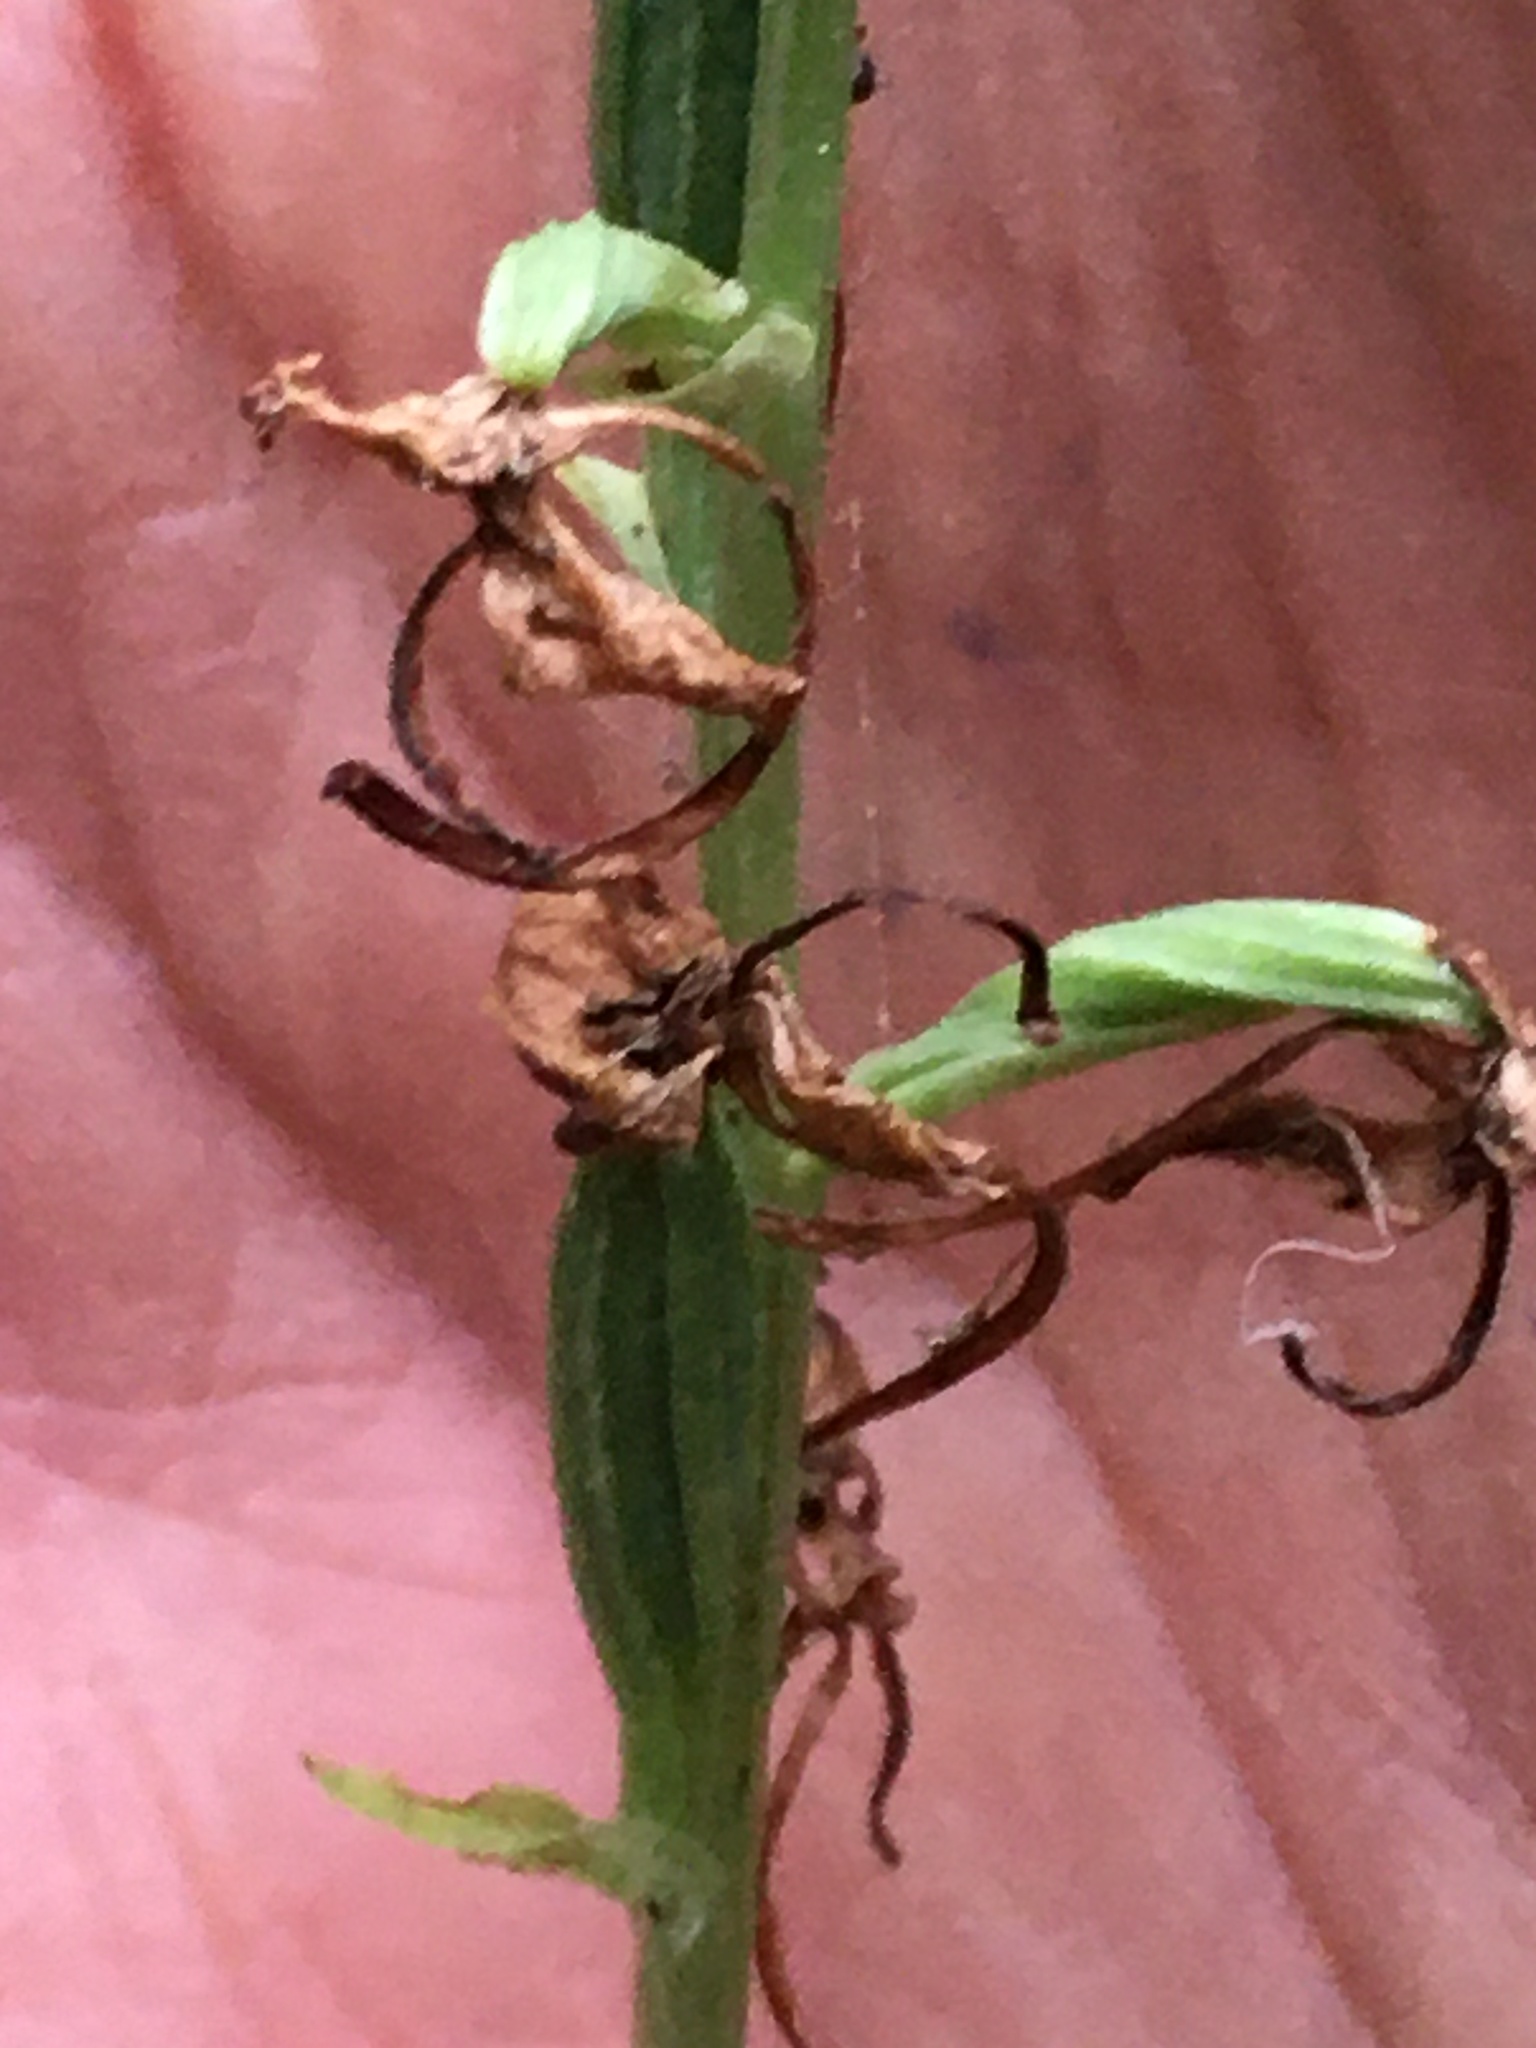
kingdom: Plantae
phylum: Tracheophyta
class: Liliopsida
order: Asparagales
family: Orchidaceae
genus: Platanthera
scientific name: Platanthera orbiculata
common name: Large round-leaved orchid
